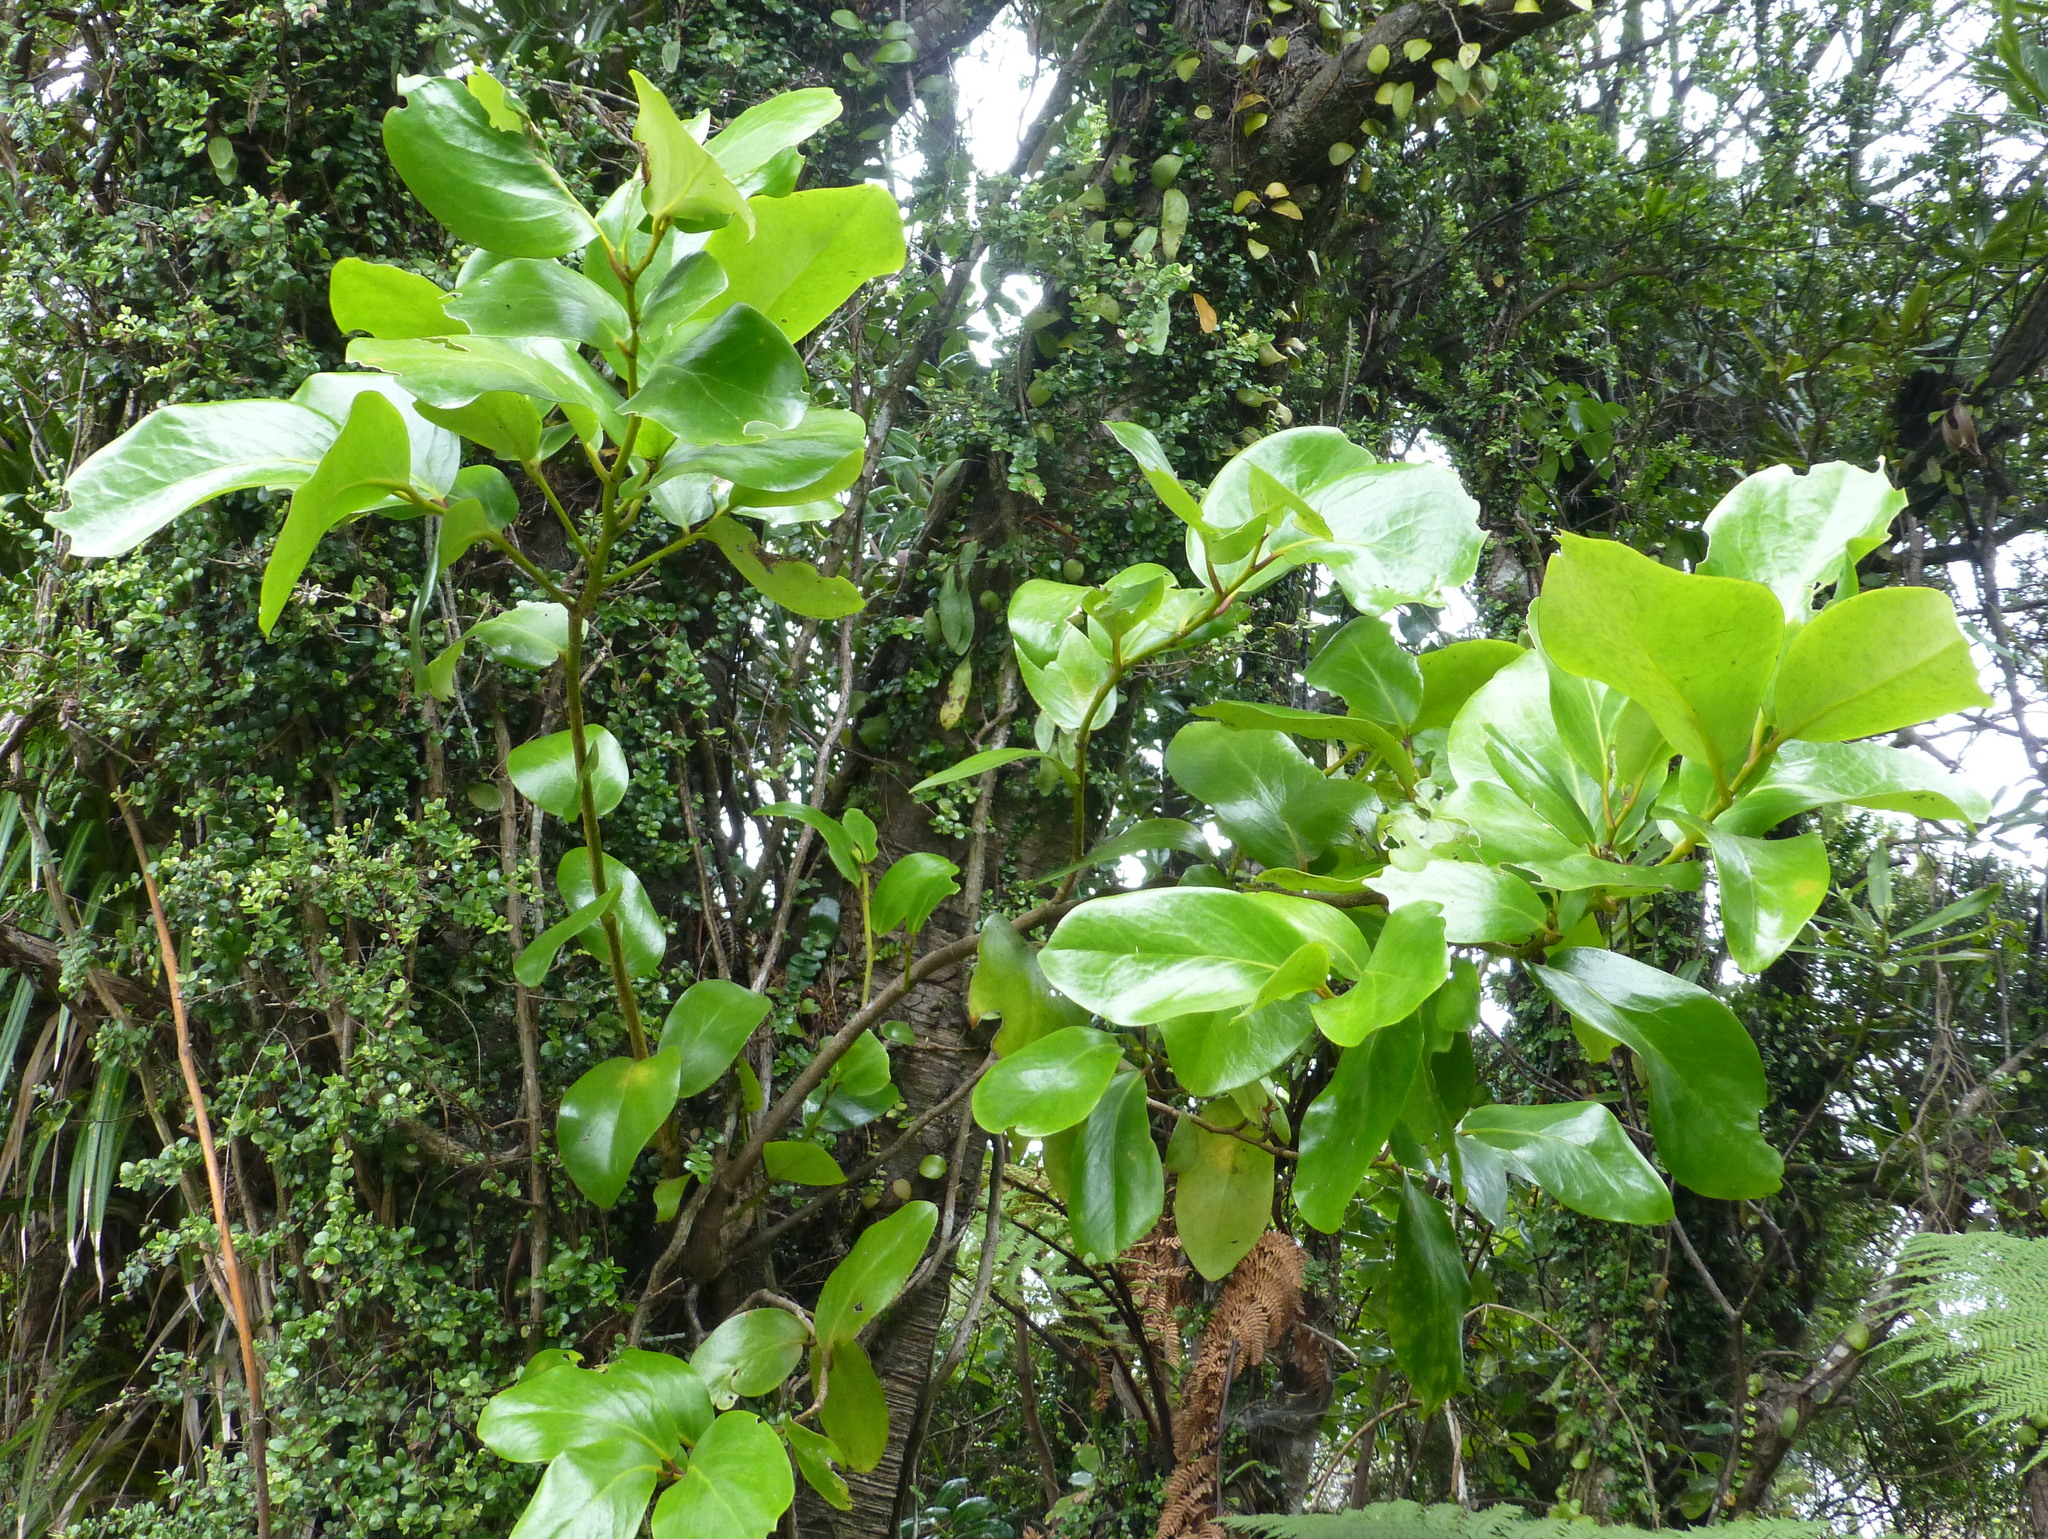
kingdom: Plantae
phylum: Tracheophyta
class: Magnoliopsida
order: Apiales
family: Griseliniaceae
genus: Griselinia
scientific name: Griselinia lucida
